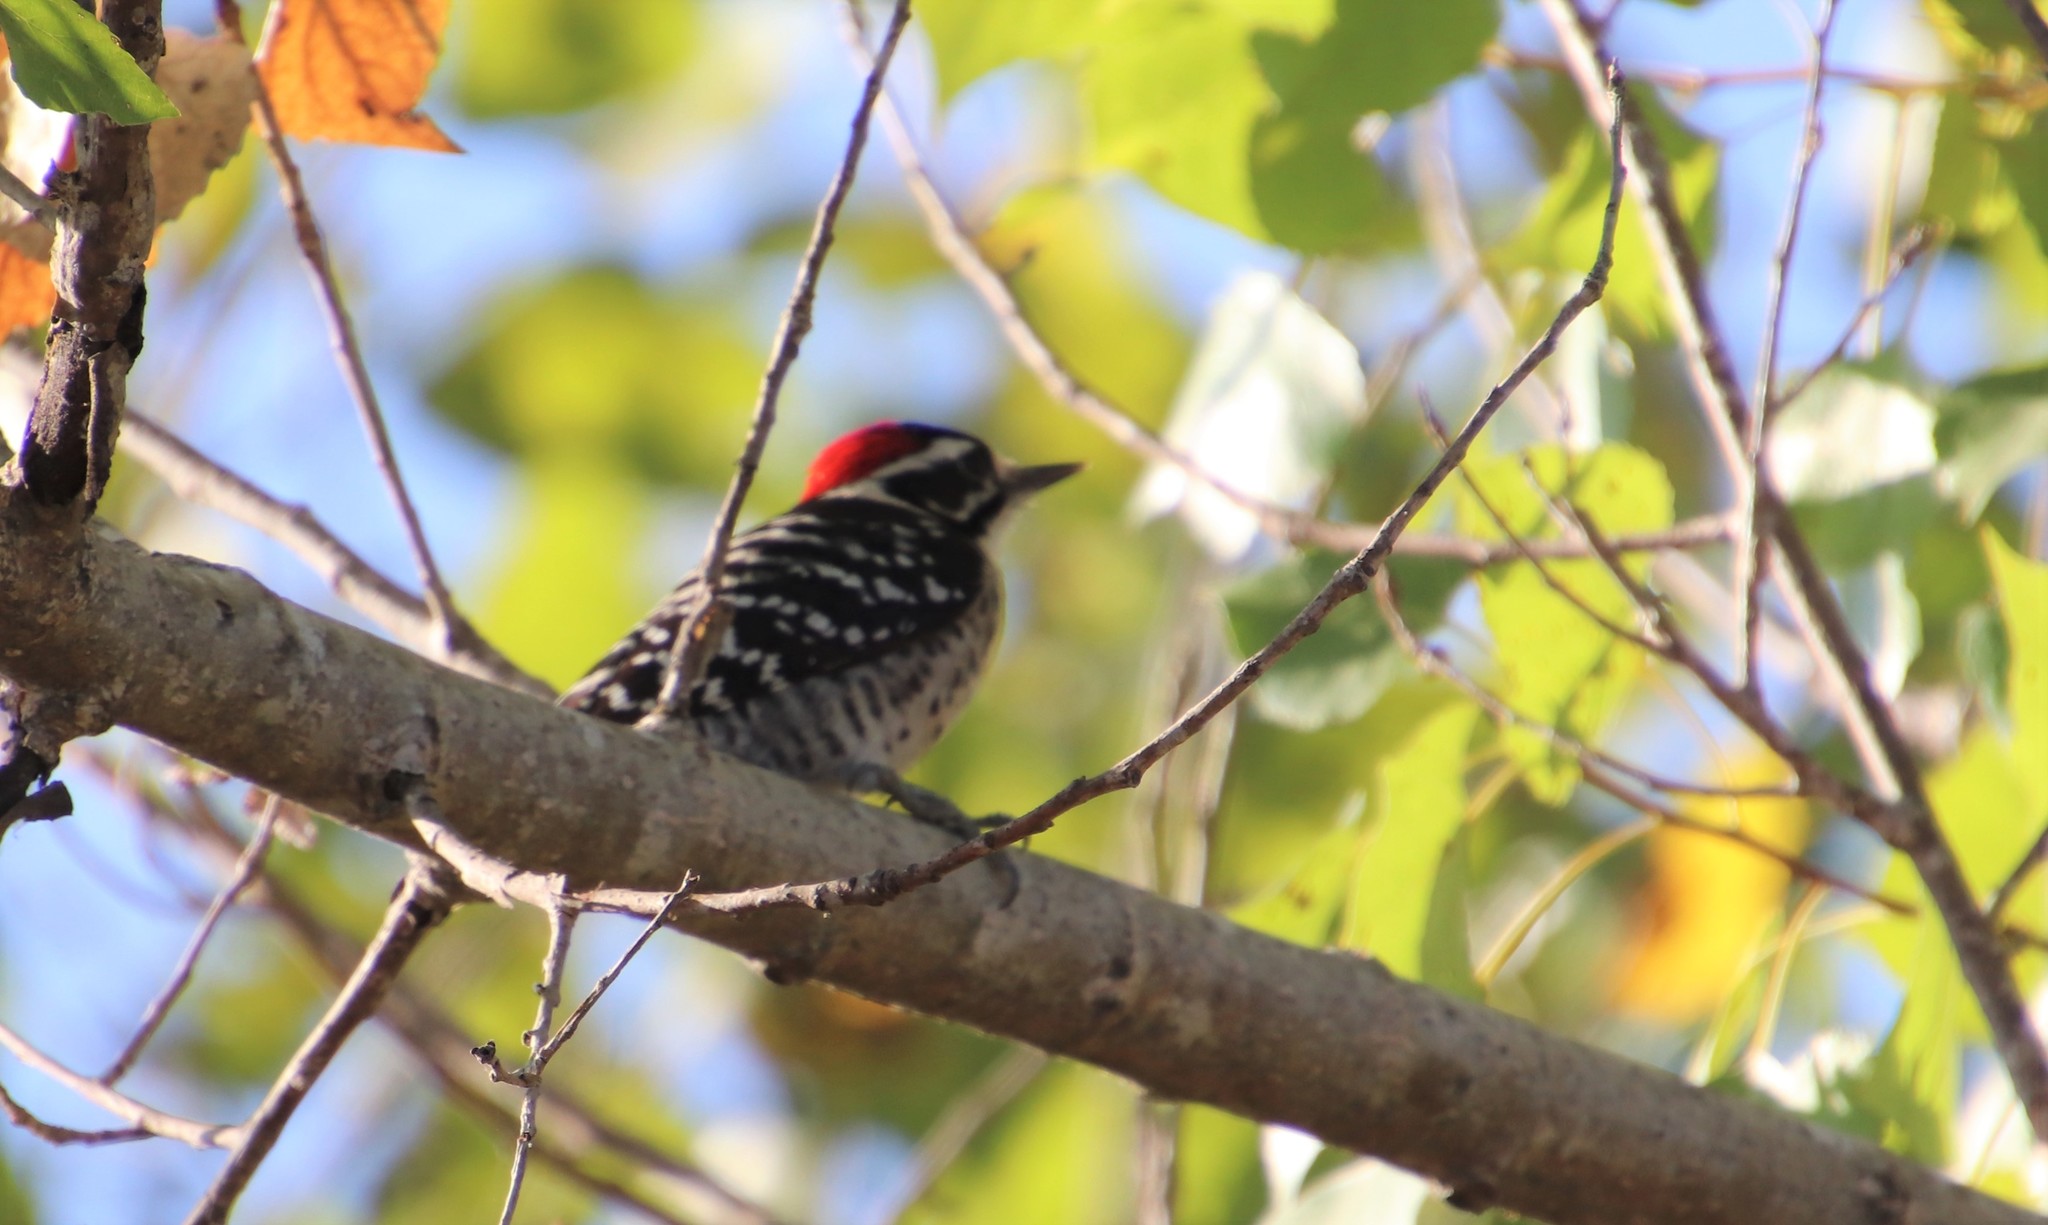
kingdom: Animalia
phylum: Chordata
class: Aves
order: Piciformes
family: Picidae
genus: Dryobates
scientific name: Dryobates nuttallii
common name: Nuttall's woodpecker
